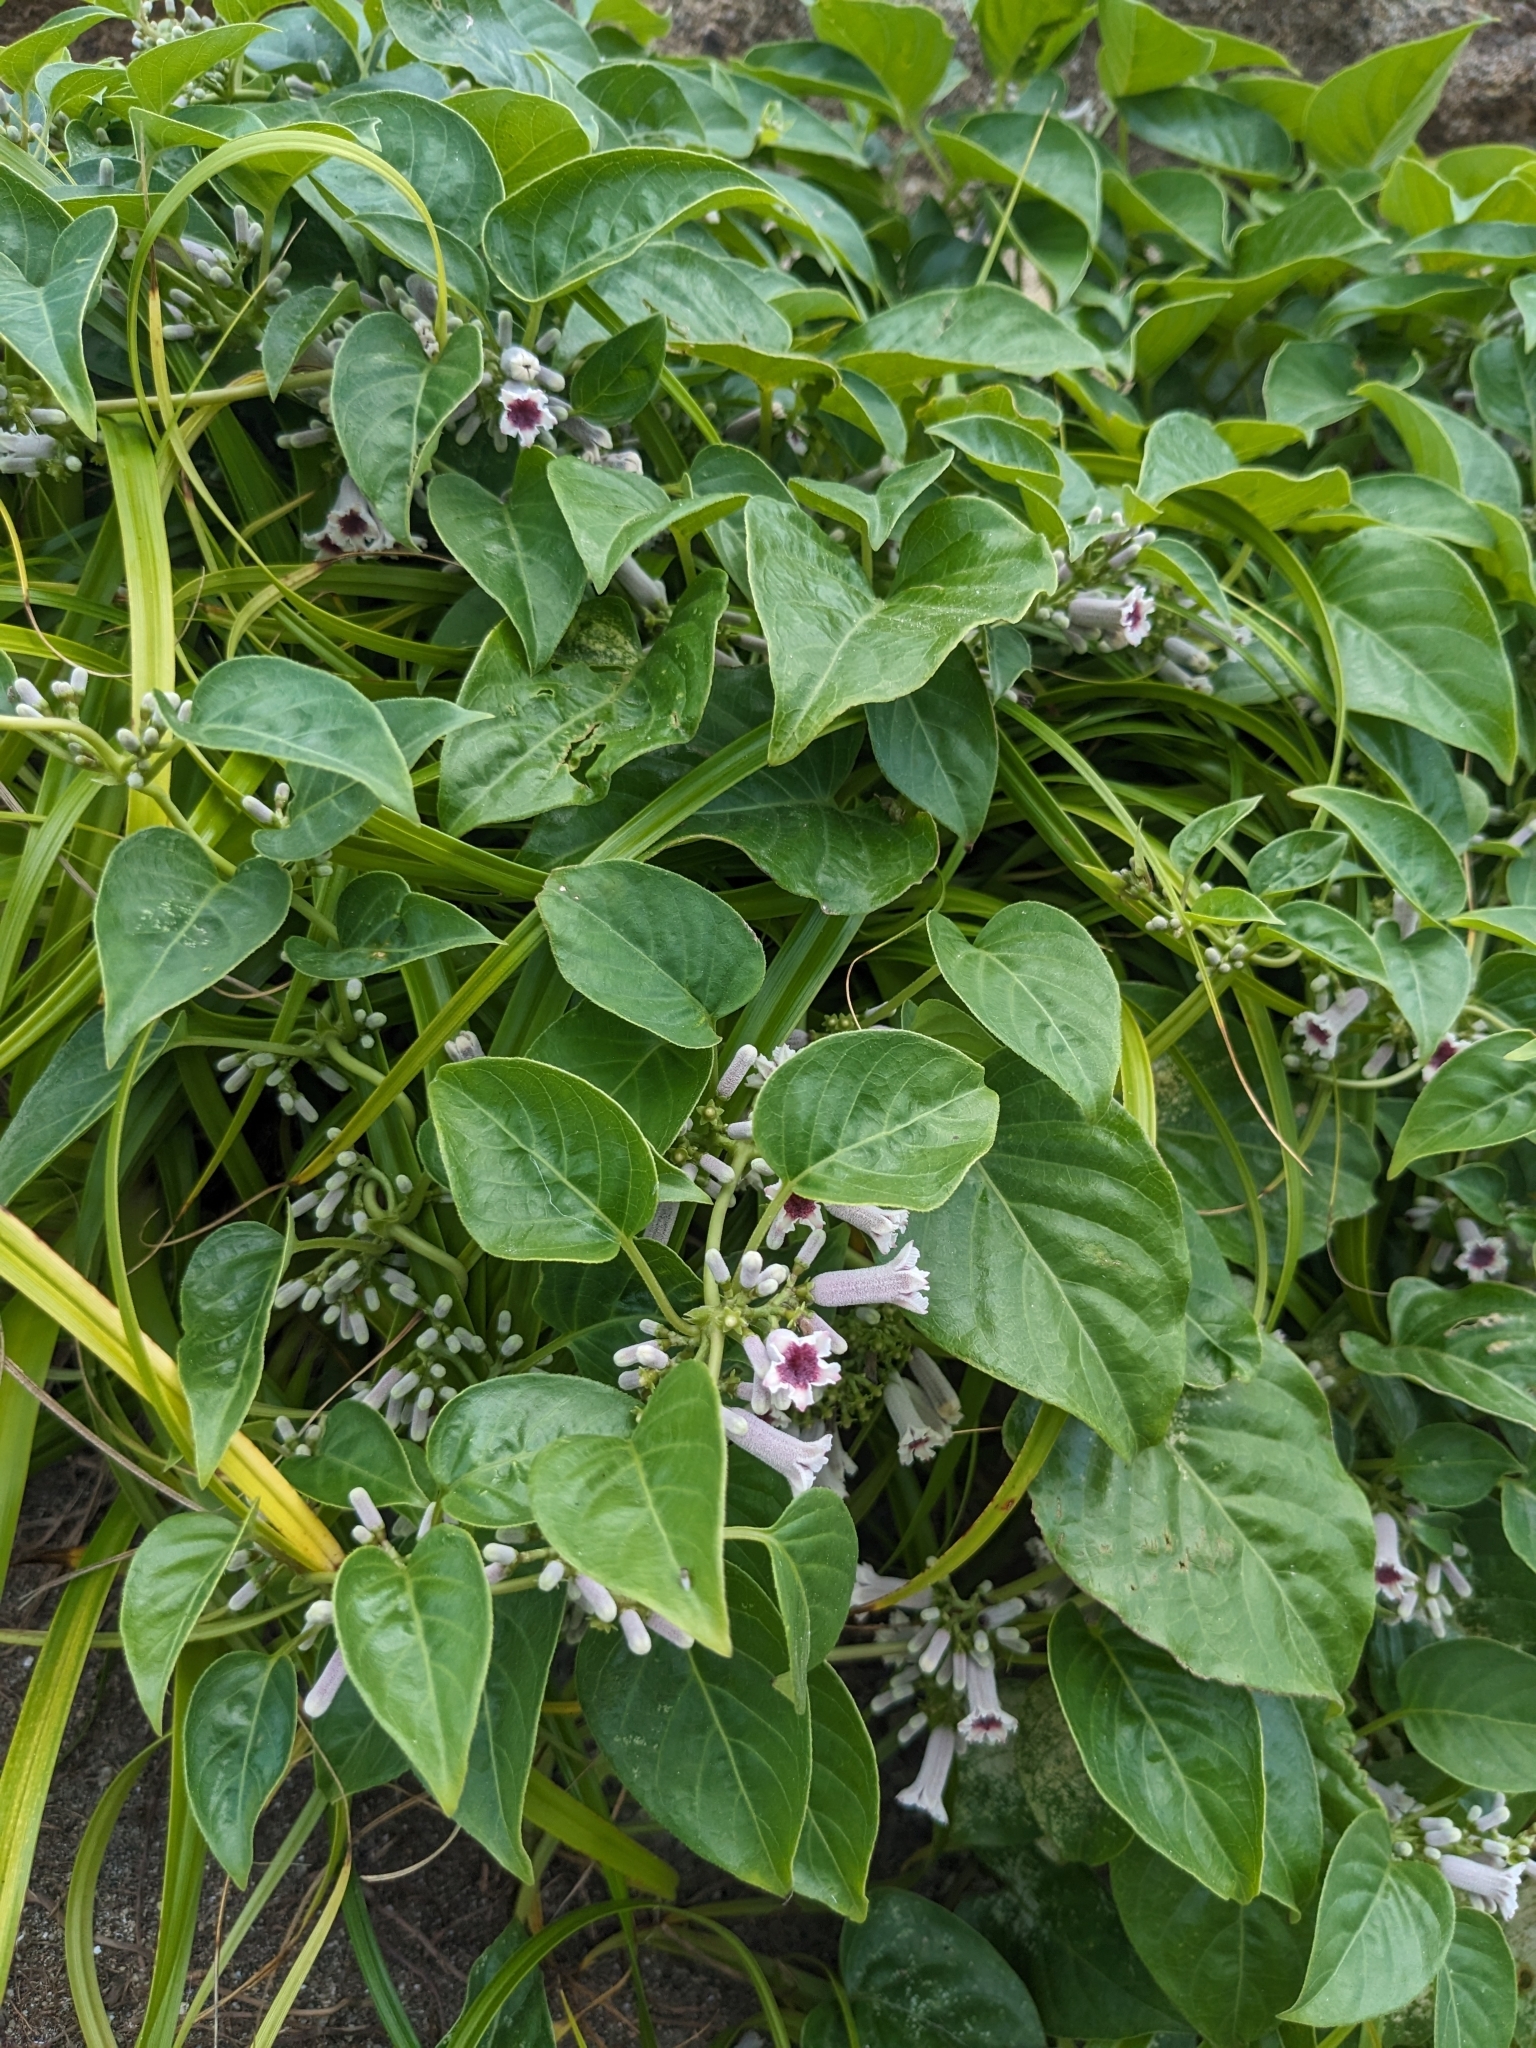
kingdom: Plantae
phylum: Tracheophyta
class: Magnoliopsida
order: Gentianales
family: Rubiaceae
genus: Paederia
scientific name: Paederia foetida
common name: Stinkvine
